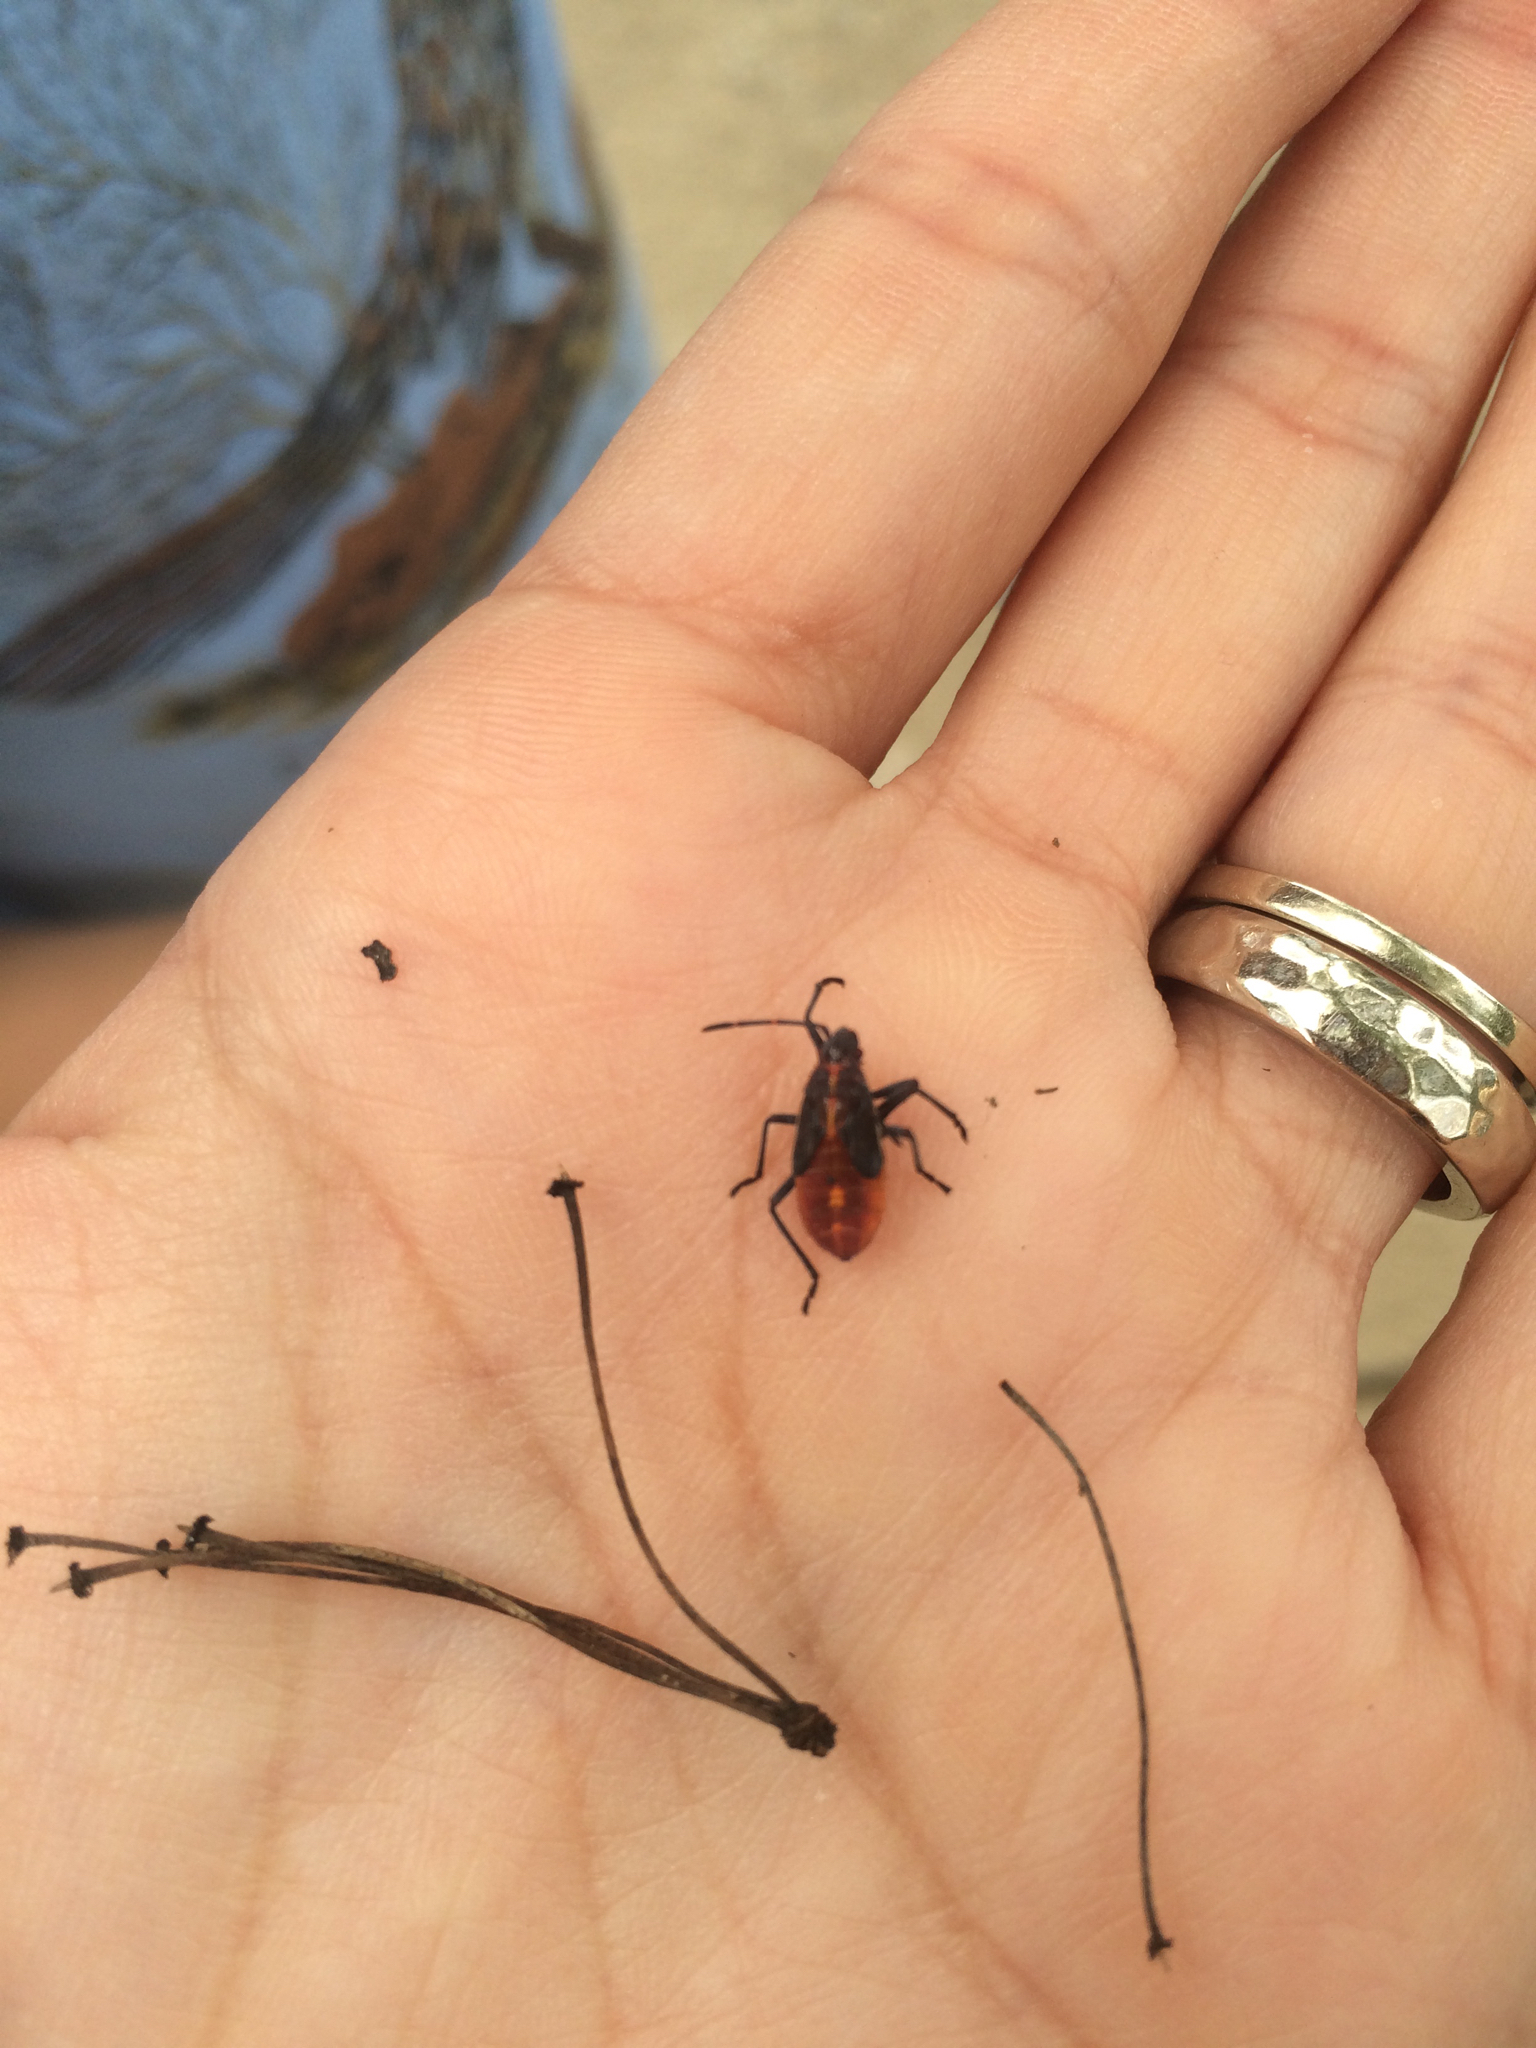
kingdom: Animalia
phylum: Arthropoda
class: Insecta
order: Hemiptera
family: Rhopalidae
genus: Boisea
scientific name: Boisea trivittata
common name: Boxelder bug
